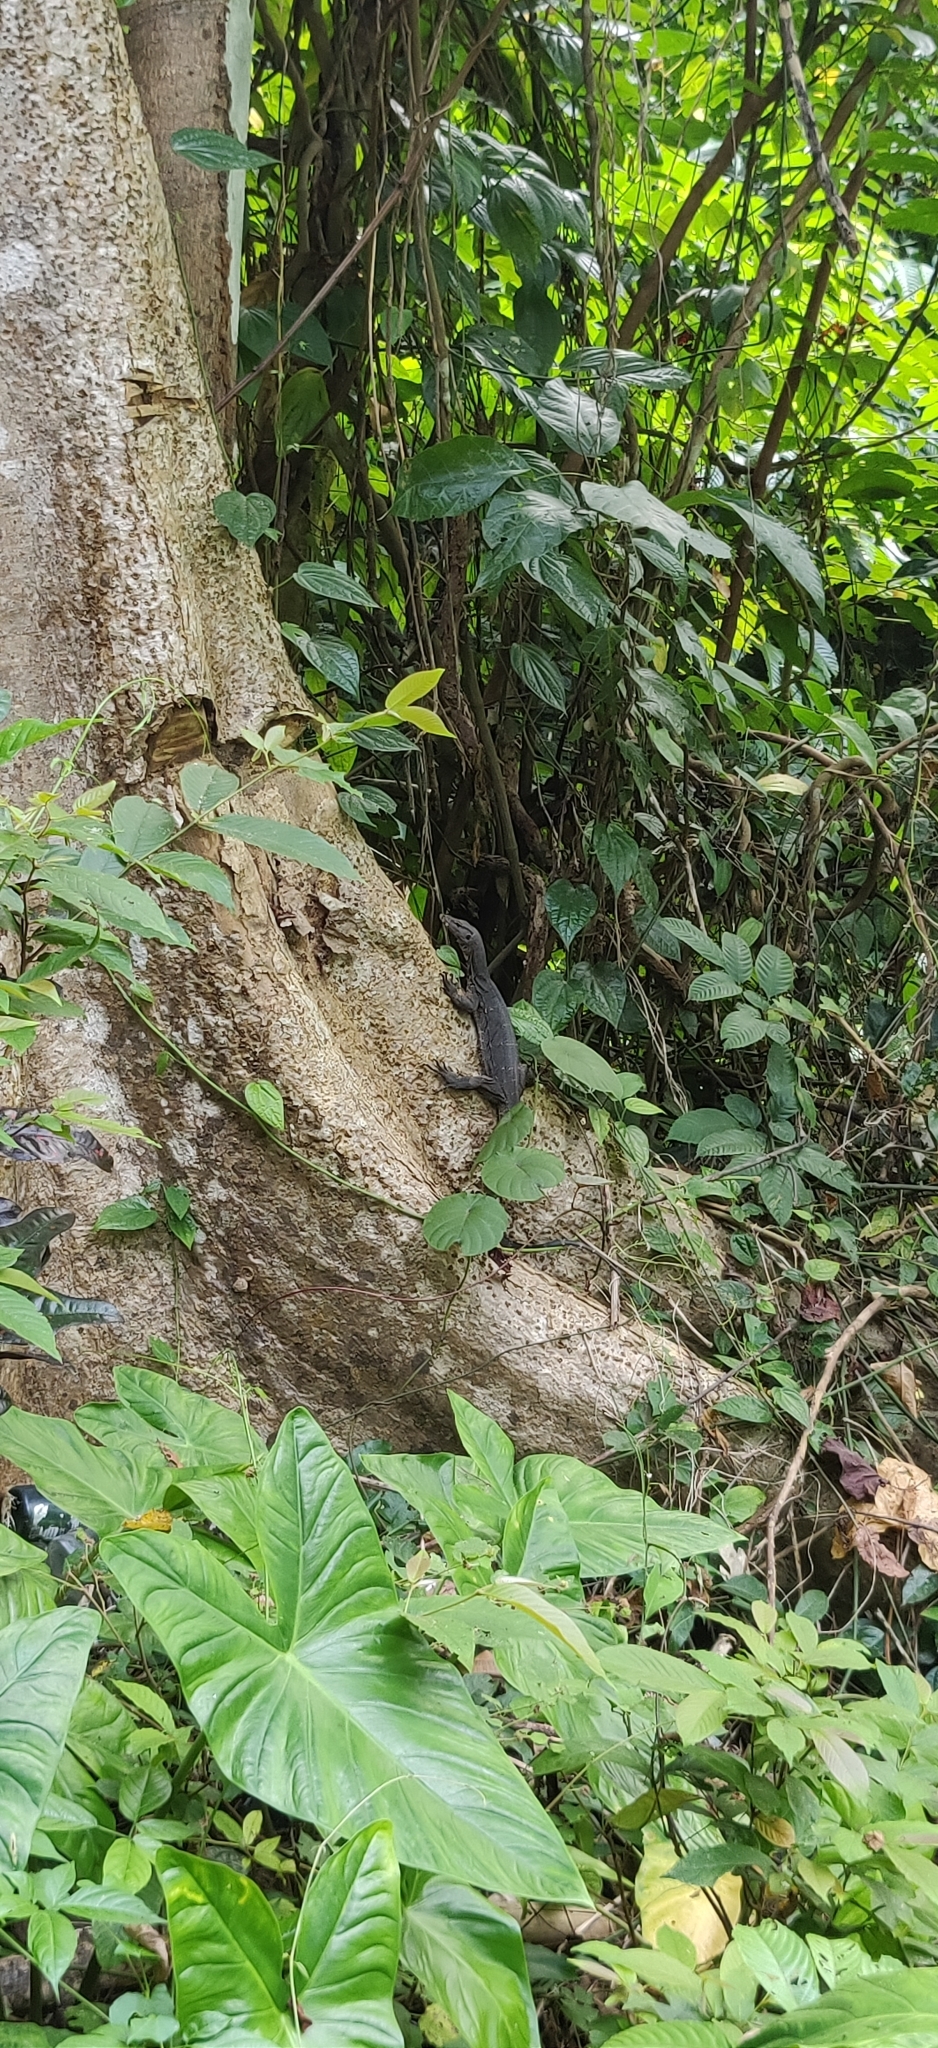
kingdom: Animalia
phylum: Chordata
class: Squamata
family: Varanidae
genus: Varanus
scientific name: Varanus salvator
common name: Common water monitor
